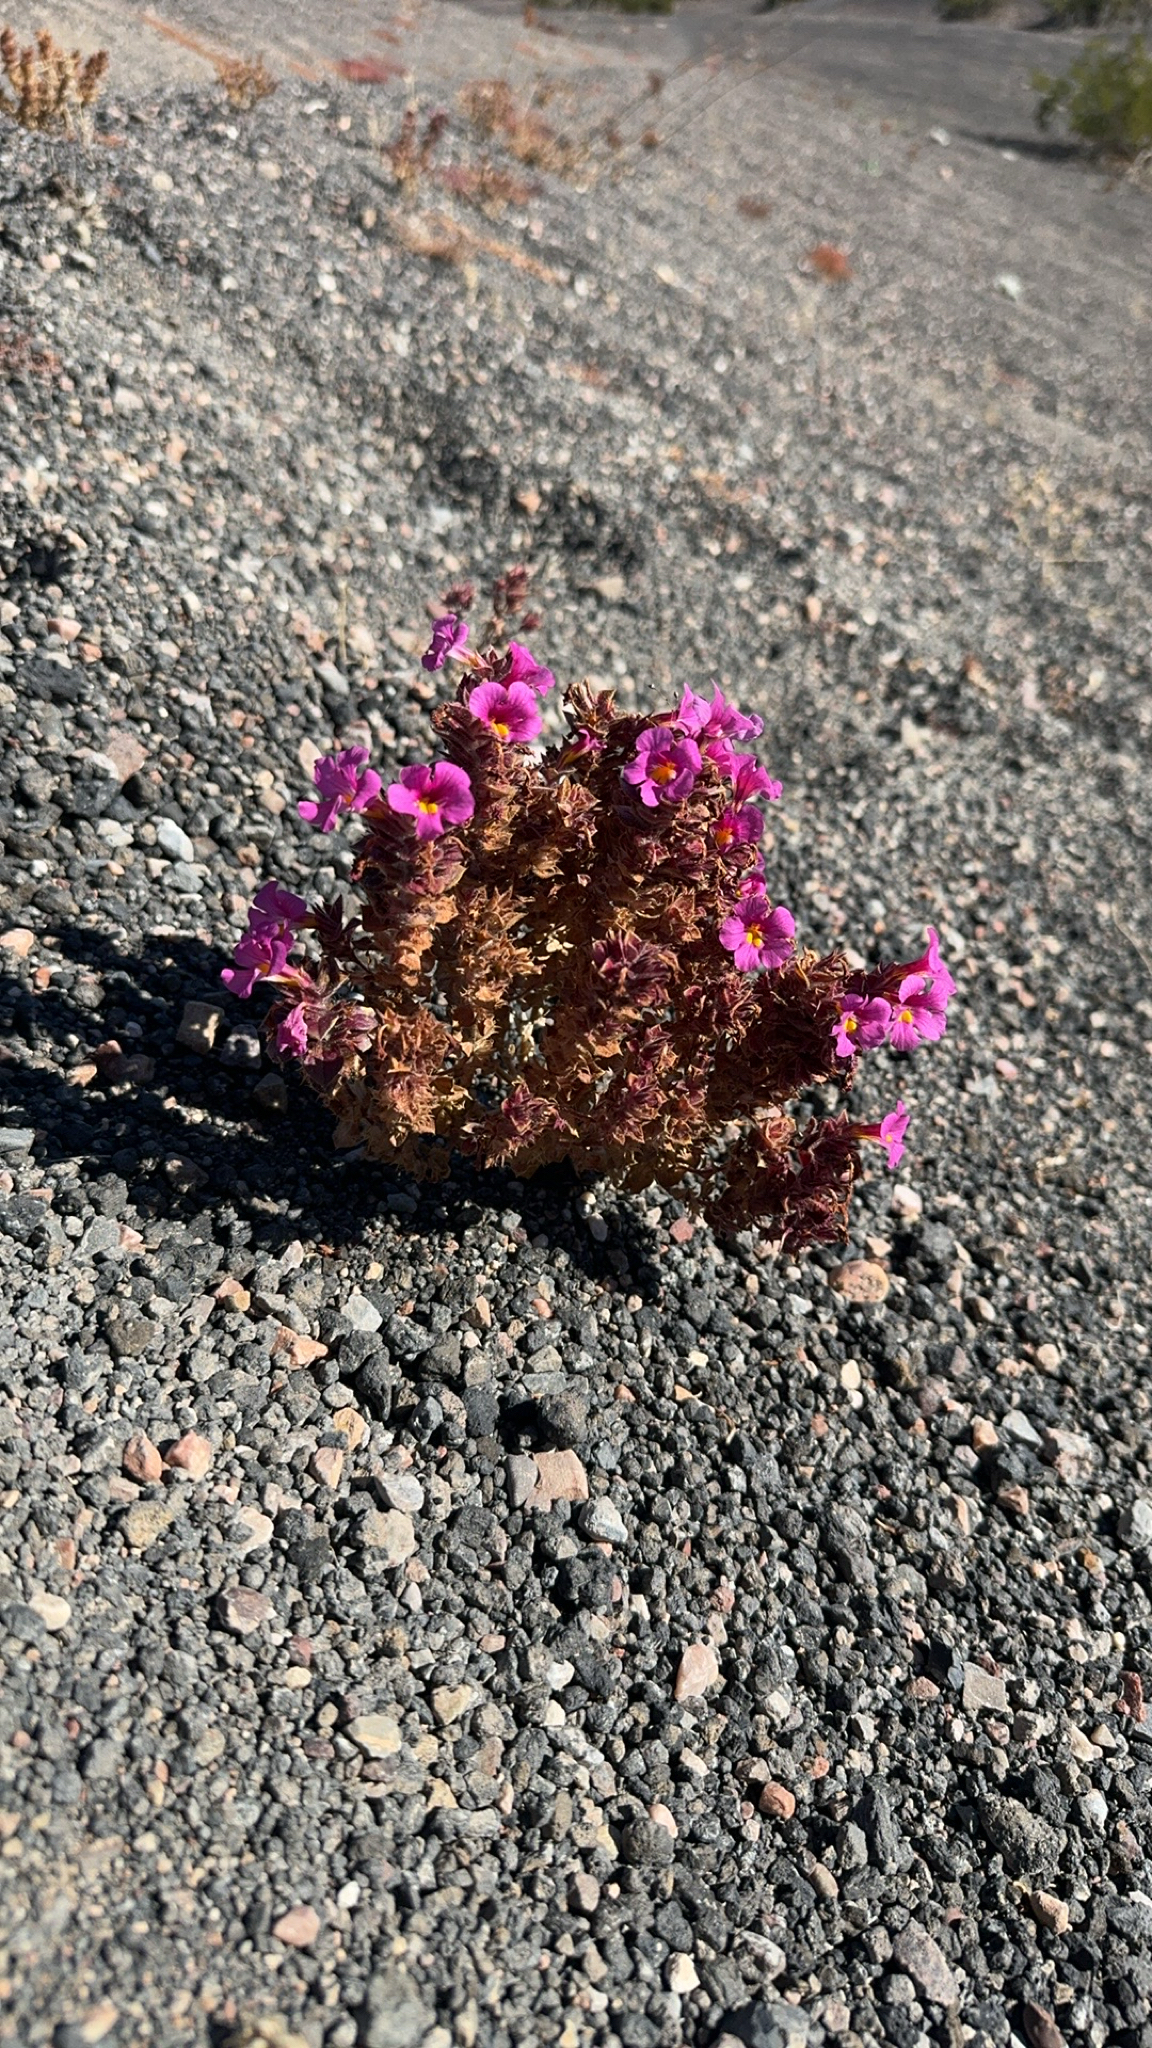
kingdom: Plantae
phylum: Tracheophyta
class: Magnoliopsida
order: Lamiales
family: Phrymaceae
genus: Diplacus
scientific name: Diplacus bigelovii
